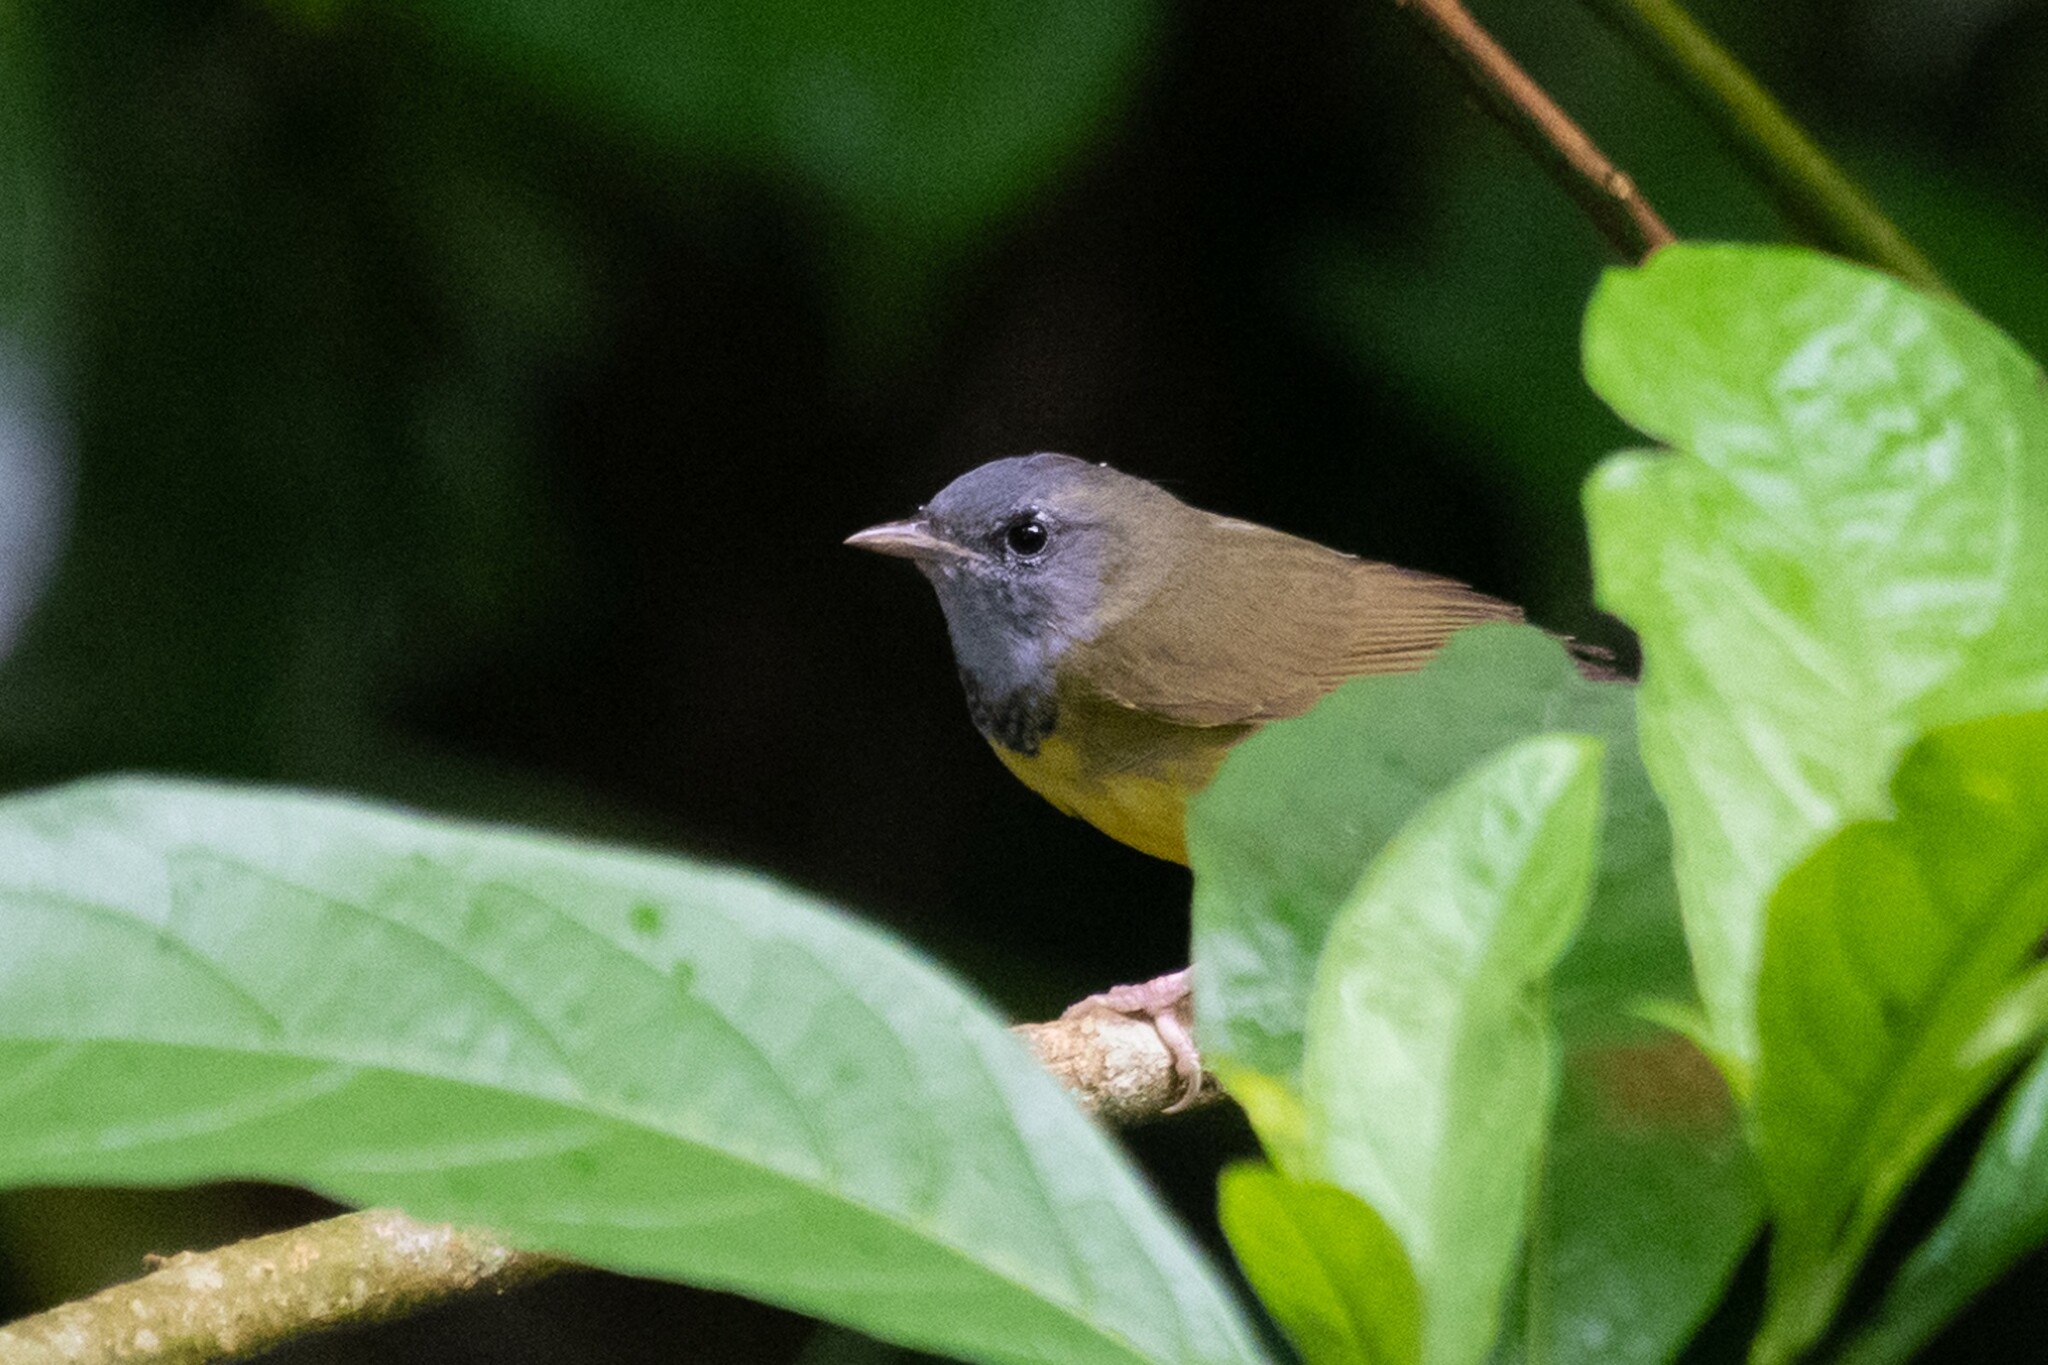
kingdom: Animalia
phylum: Chordata
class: Aves
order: Passeriformes
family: Parulidae
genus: Geothlypis
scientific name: Geothlypis philadelphia
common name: Mourning warbler
